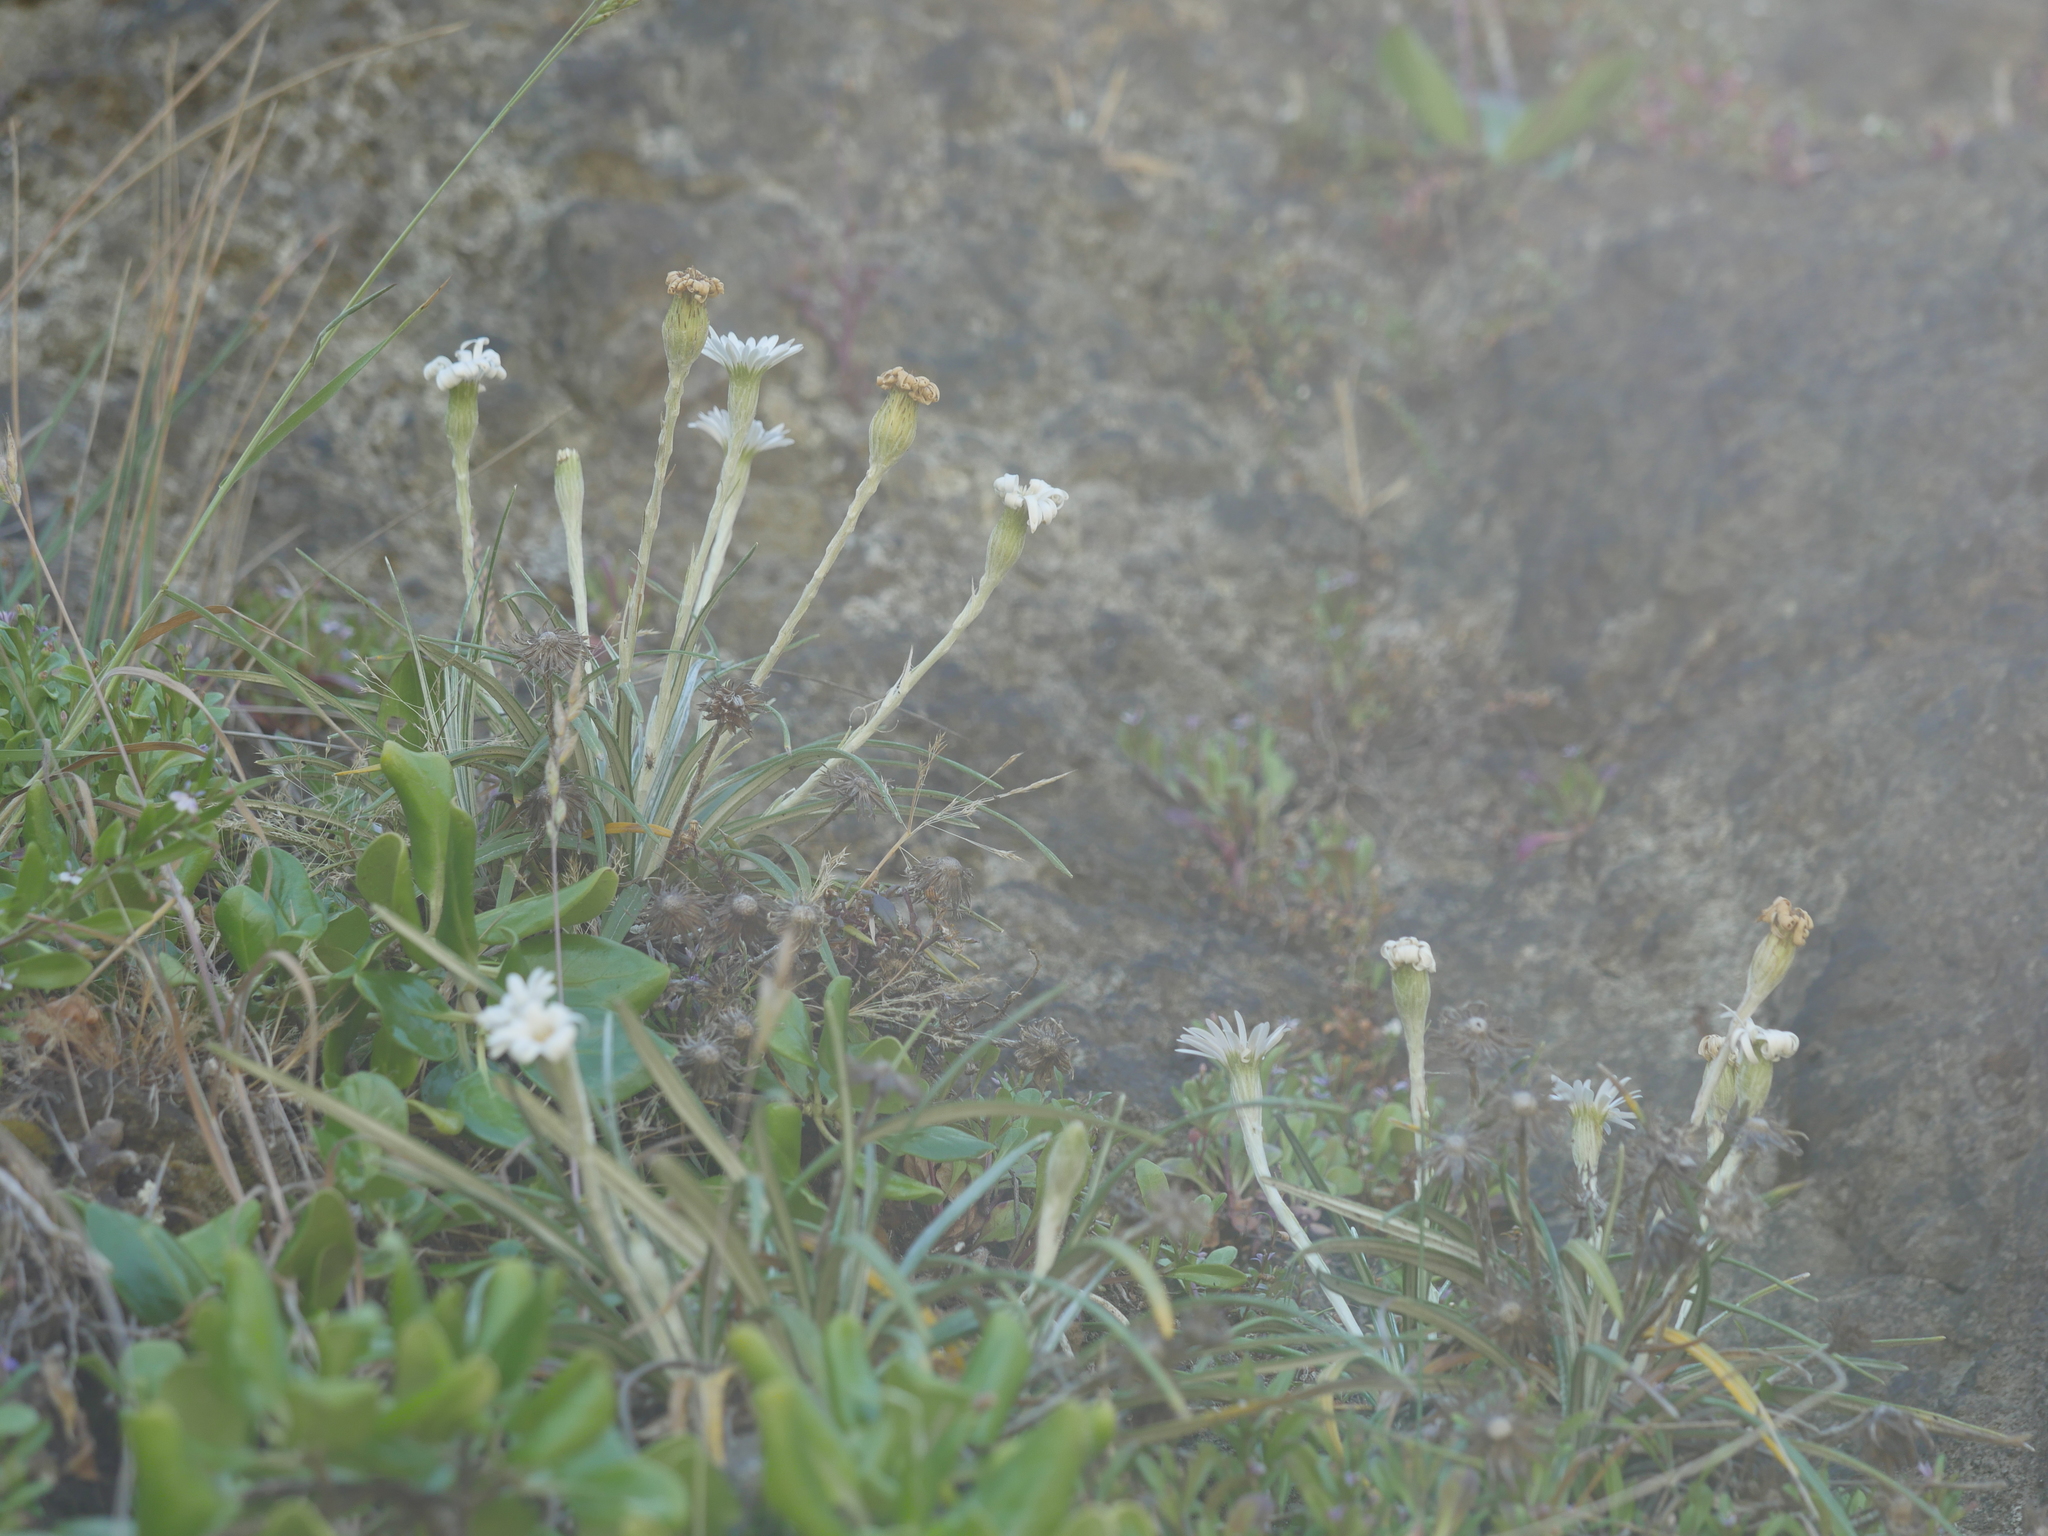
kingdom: Plantae
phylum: Tracheophyta
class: Magnoliopsida
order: Asterales
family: Asteraceae
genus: Celmisia
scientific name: Celmisia major
